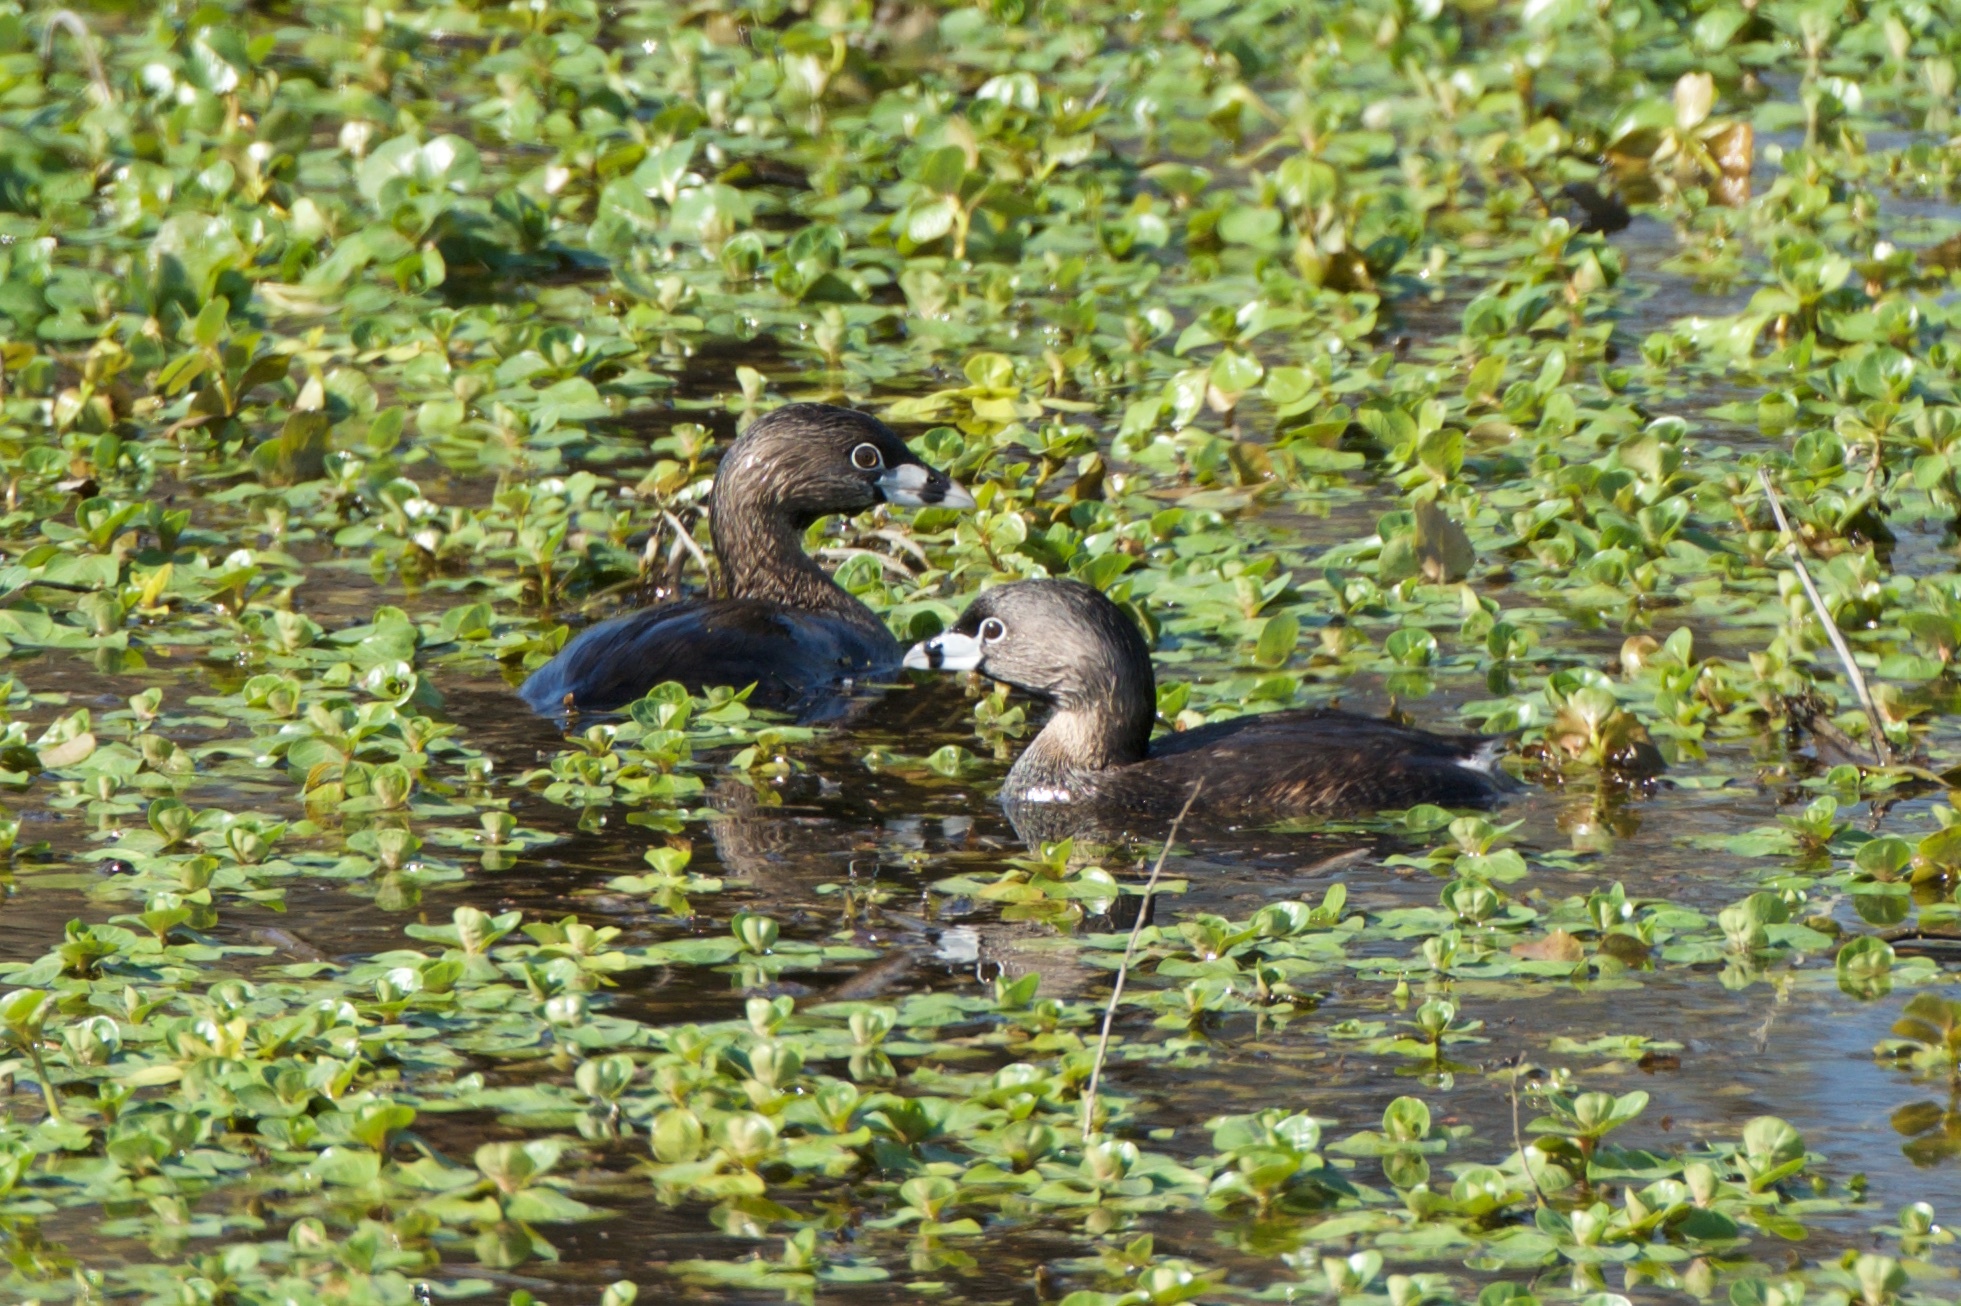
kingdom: Animalia
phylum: Chordata
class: Aves
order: Podicipediformes
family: Podicipedidae
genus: Podilymbus
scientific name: Podilymbus podiceps
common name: Pied-billed grebe
